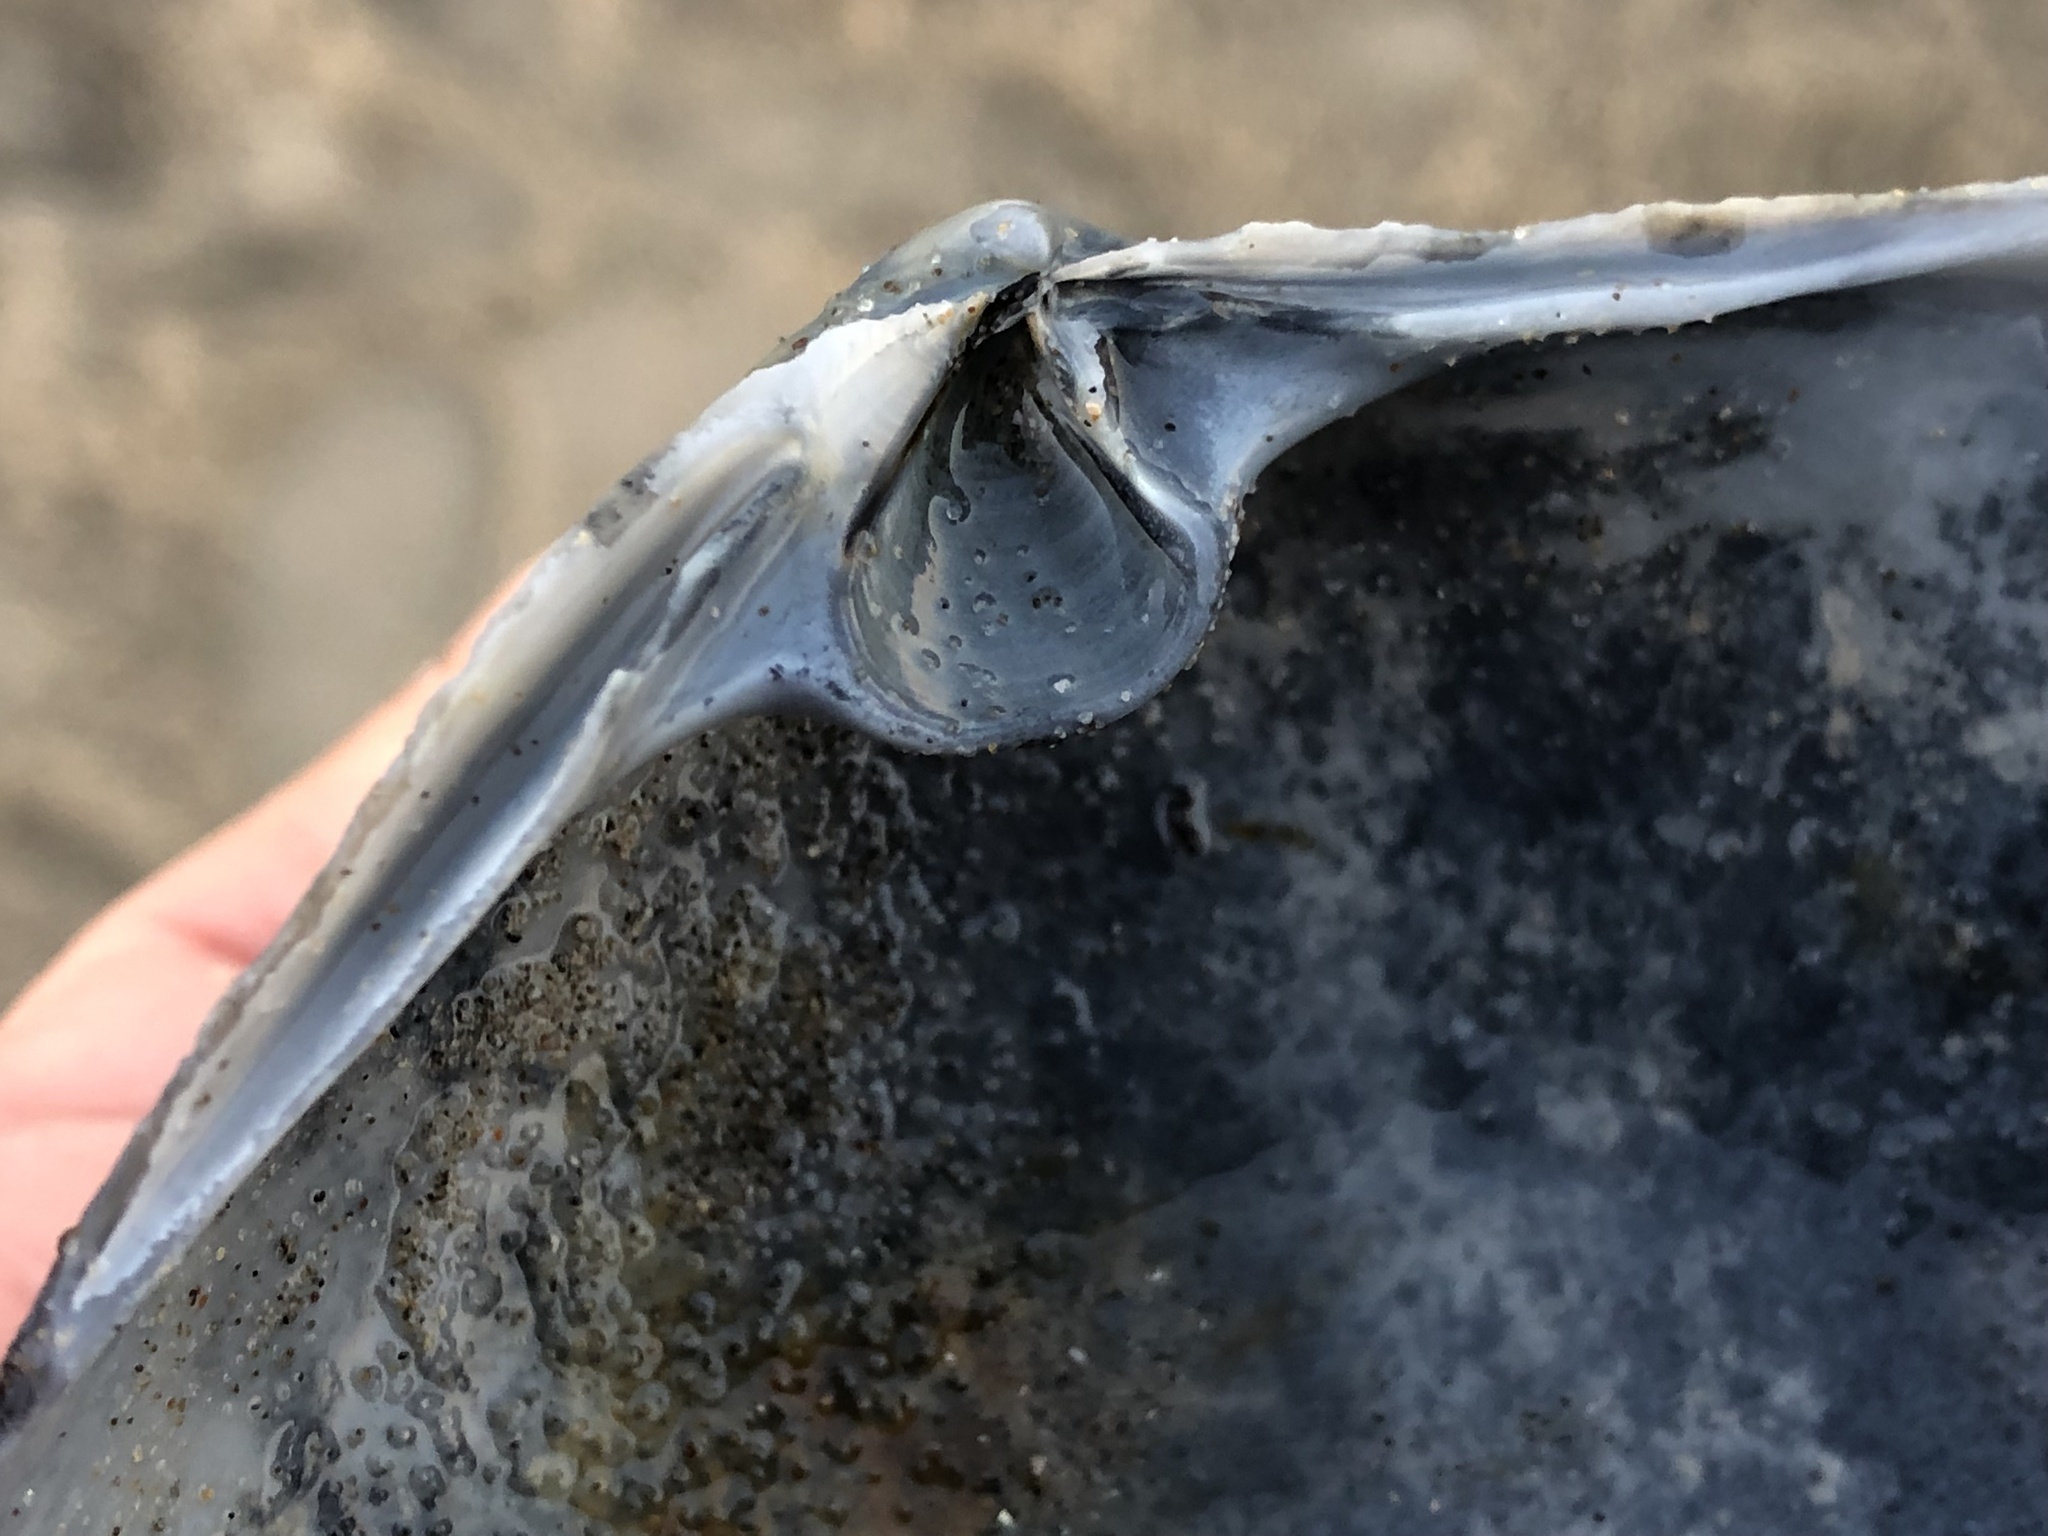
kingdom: Animalia
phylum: Mollusca
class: Bivalvia
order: Venerida
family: Mactridae
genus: Mactromeris
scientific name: Mactromeris catilliformis
